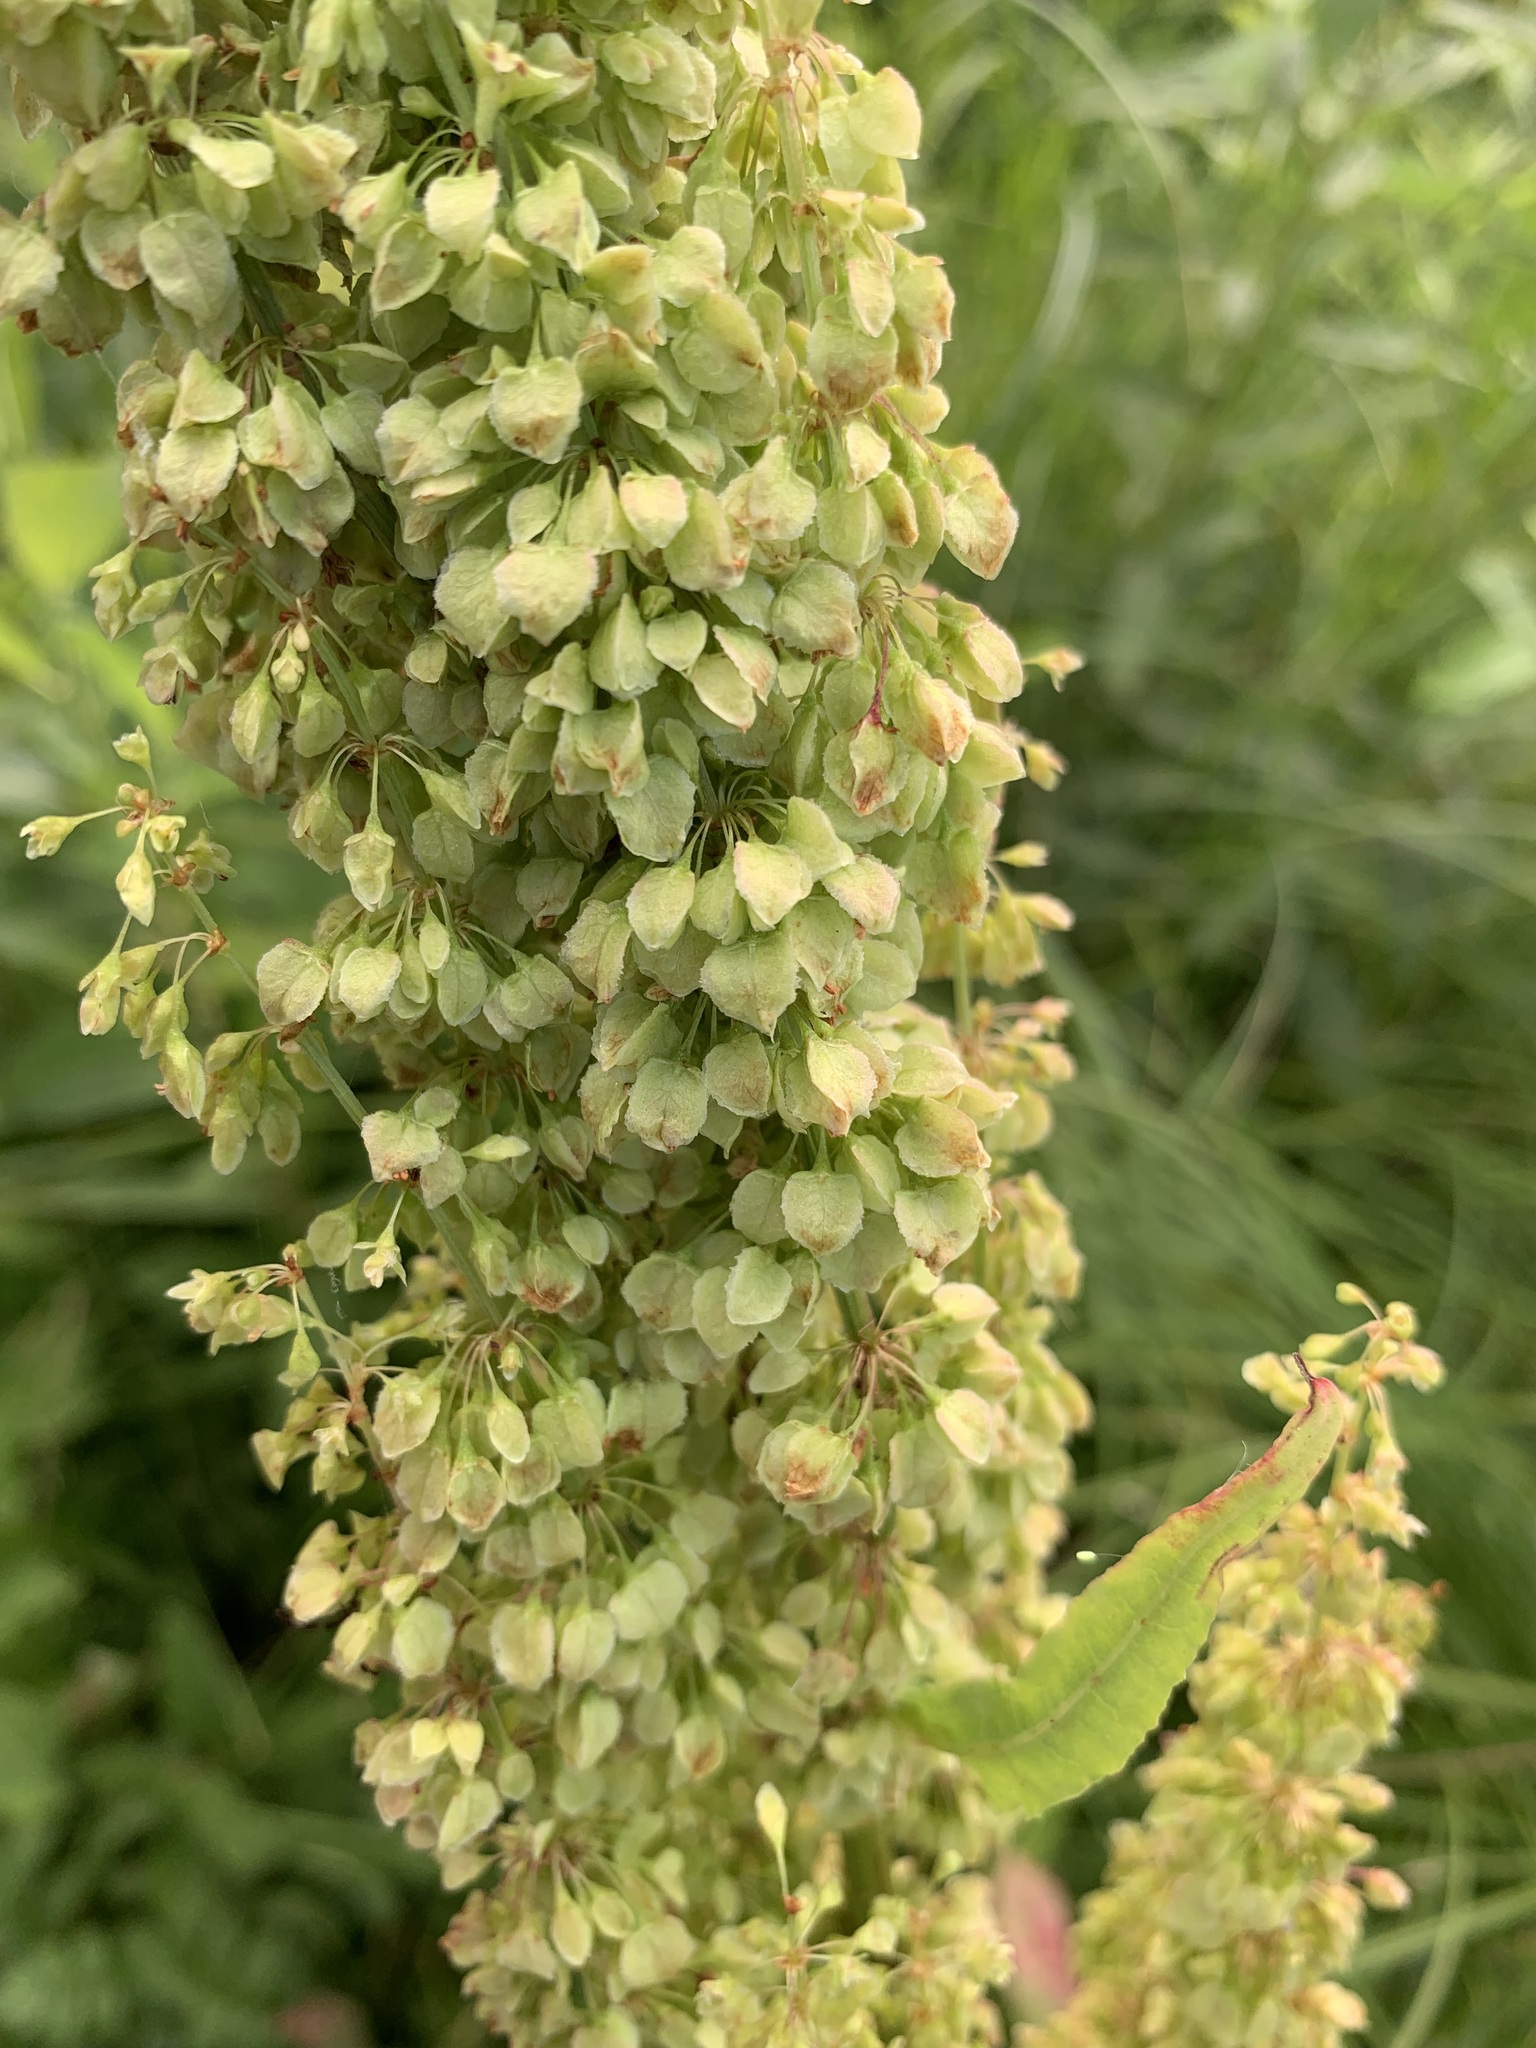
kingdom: Plantae
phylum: Tracheophyta
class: Magnoliopsida
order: Caryophyllales
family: Polygonaceae
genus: Rumex
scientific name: Rumex aquaticus
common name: Scottish dock
